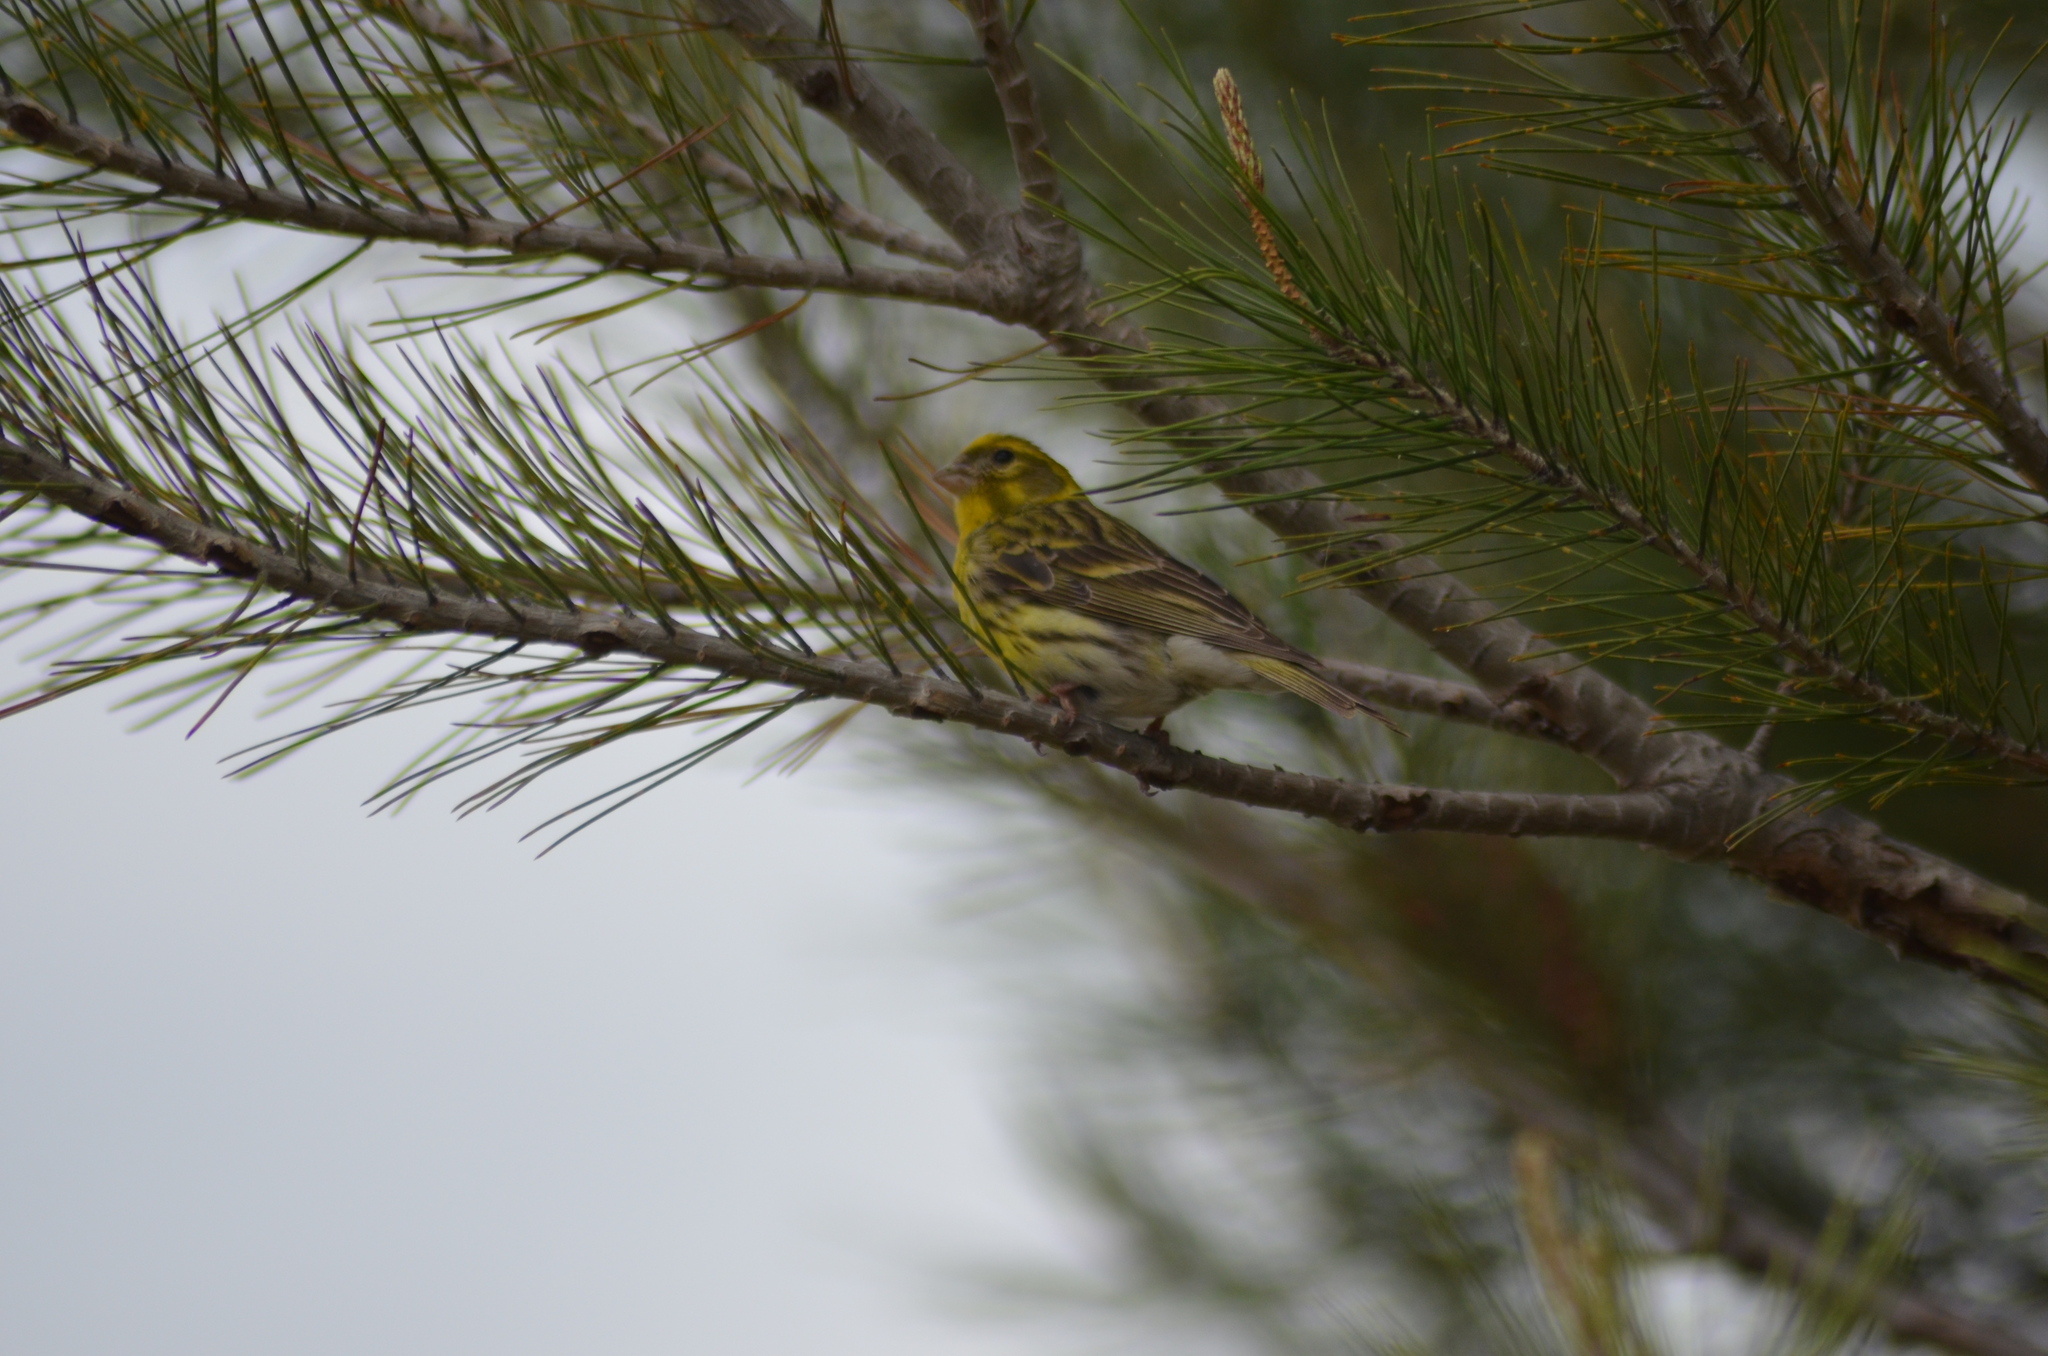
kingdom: Animalia
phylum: Chordata
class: Aves
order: Passeriformes
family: Fringillidae
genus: Serinus
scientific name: Serinus serinus
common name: European serin
